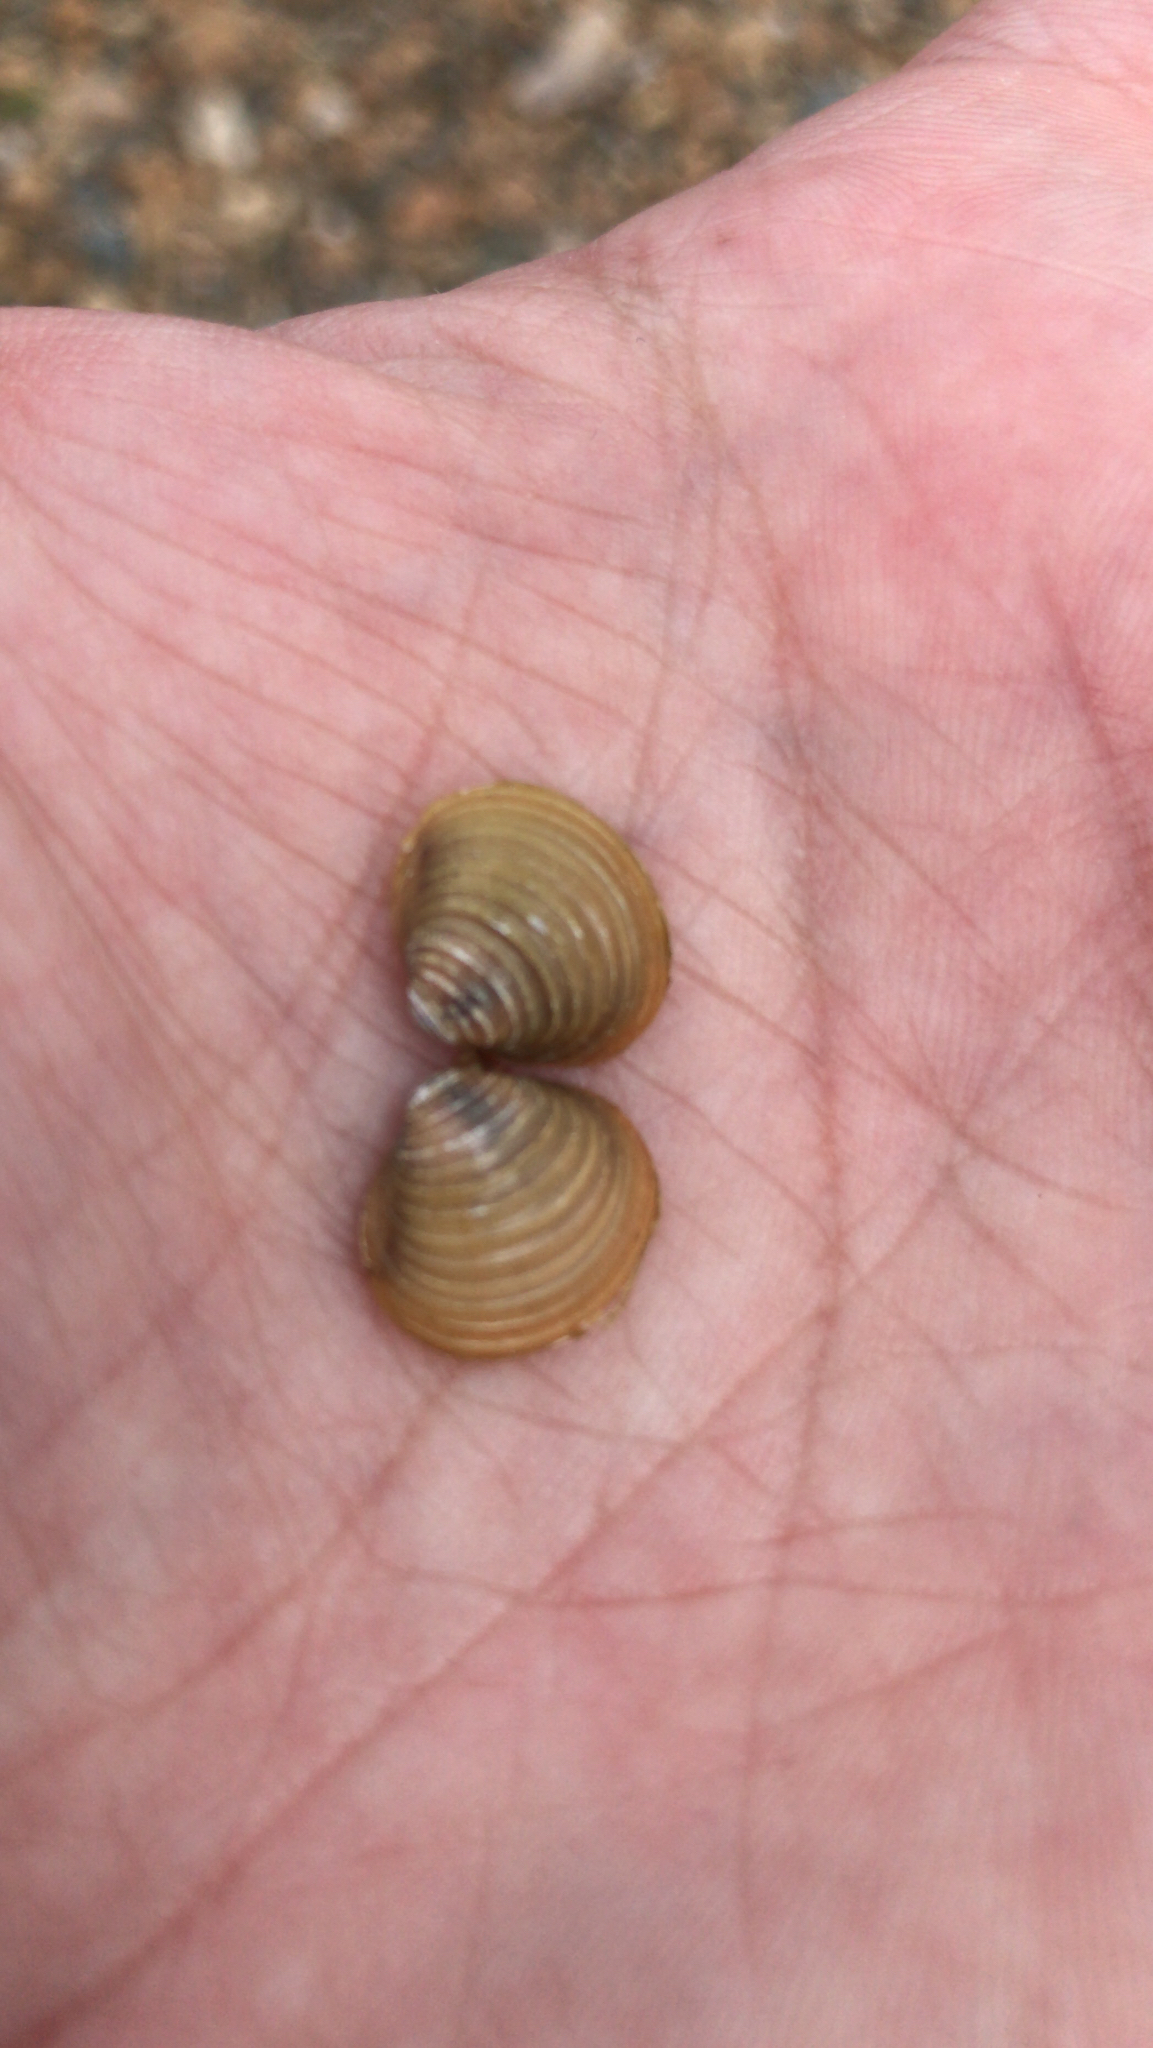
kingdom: Animalia
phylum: Mollusca
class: Bivalvia
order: Venerida
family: Cyrenidae
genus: Corbicula
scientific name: Corbicula fluminea
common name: Asian clam
